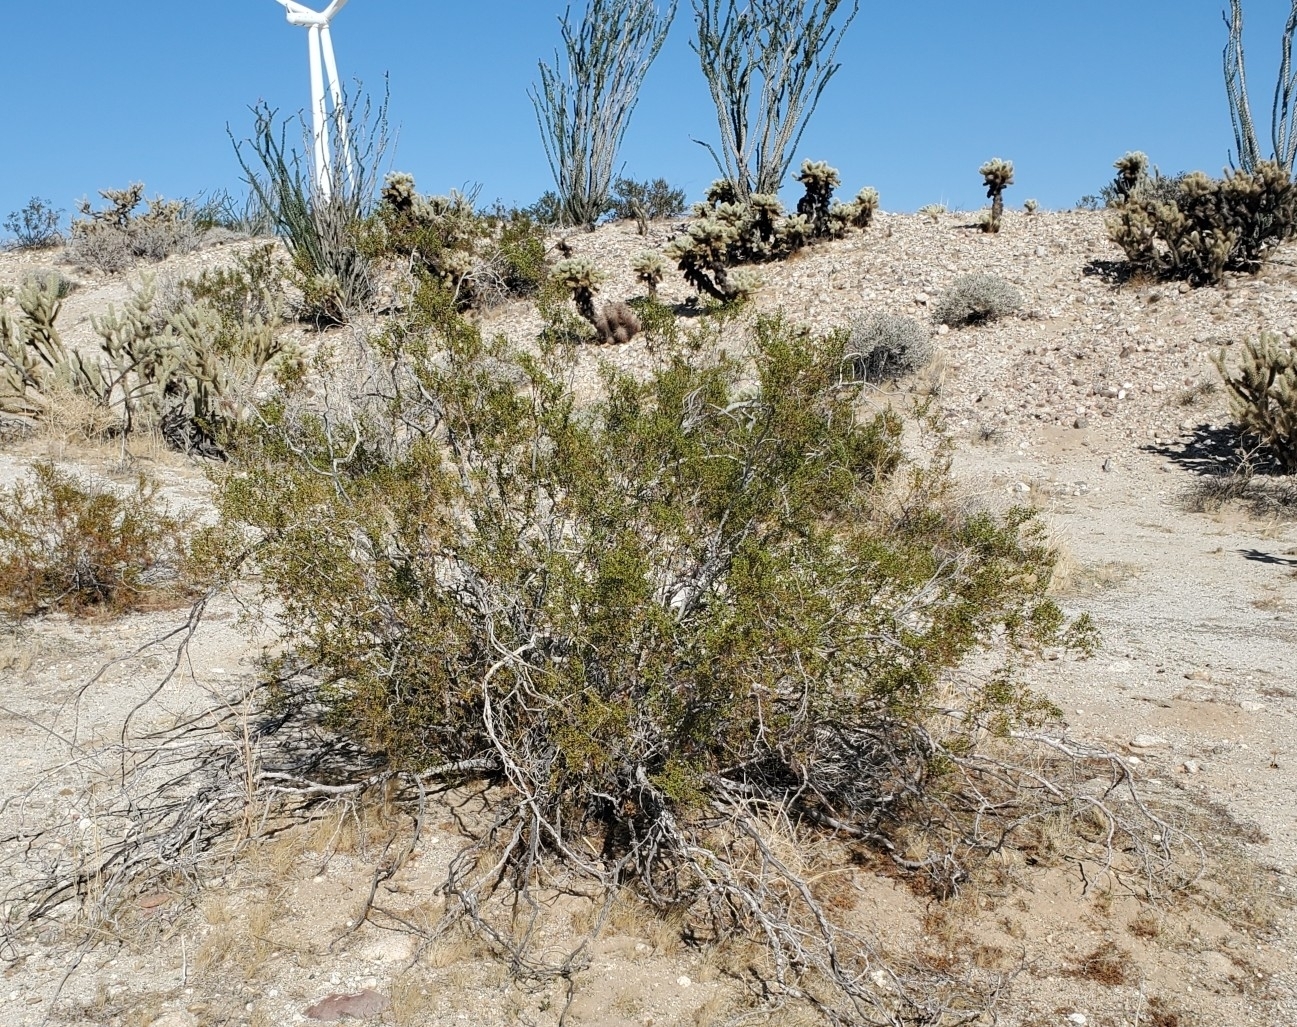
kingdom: Plantae
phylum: Tracheophyta
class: Magnoliopsida
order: Zygophyllales
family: Zygophyllaceae
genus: Larrea
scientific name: Larrea tridentata
